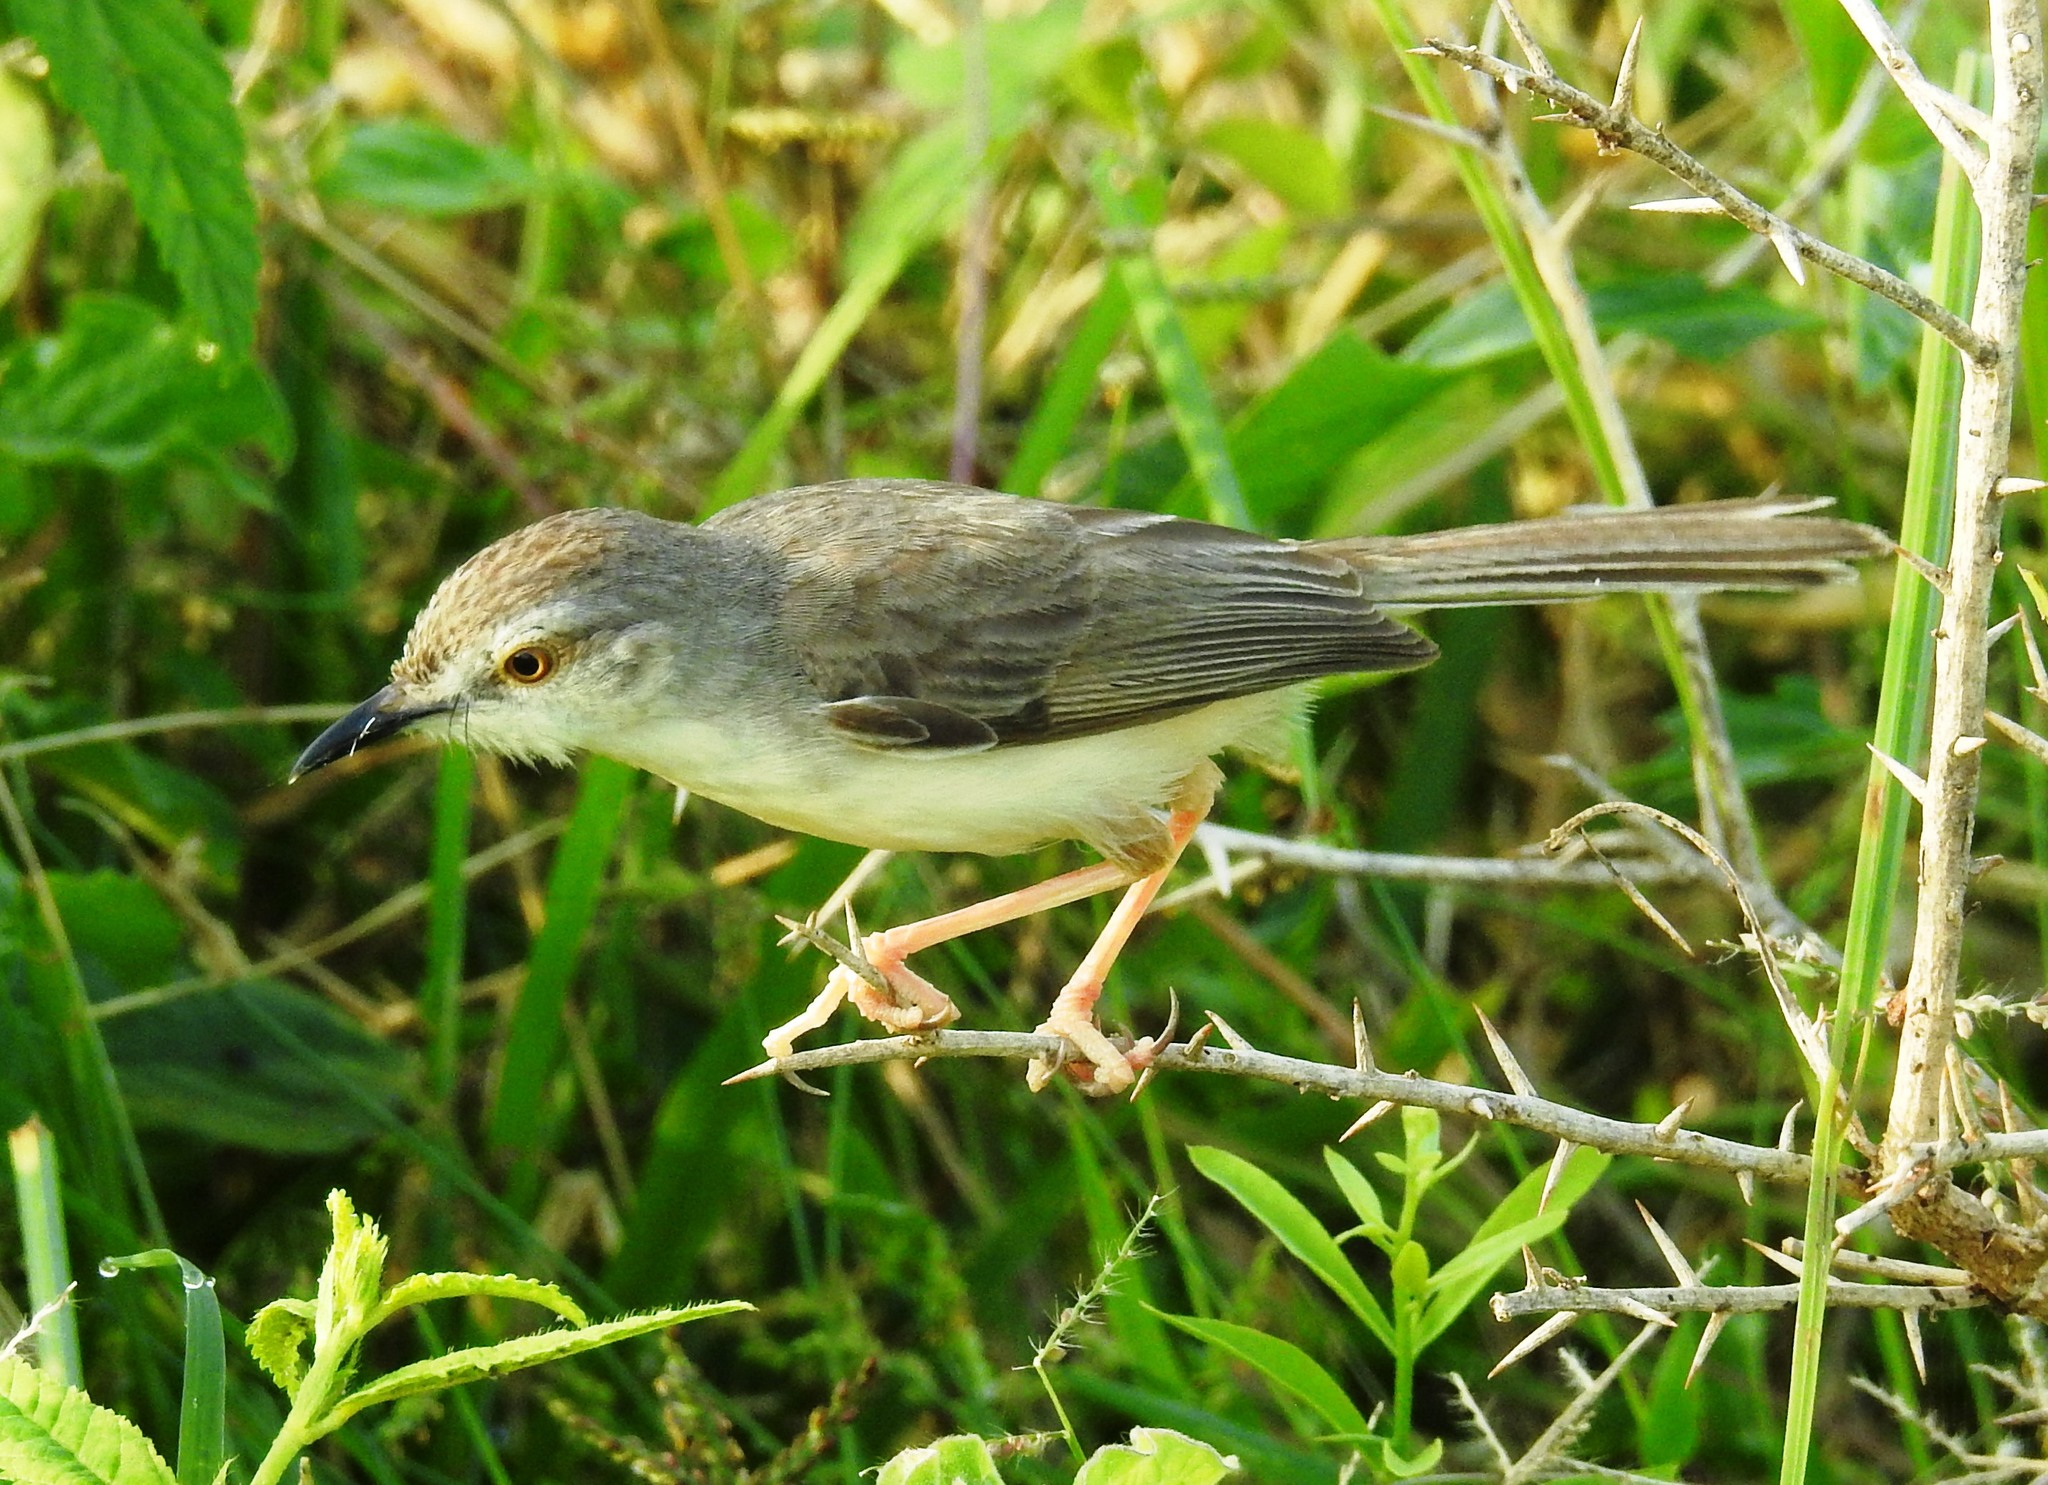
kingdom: Animalia
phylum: Chordata
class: Aves
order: Passeriformes
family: Cisticolidae
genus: Prinia
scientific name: Prinia inornata
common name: Plain prinia
